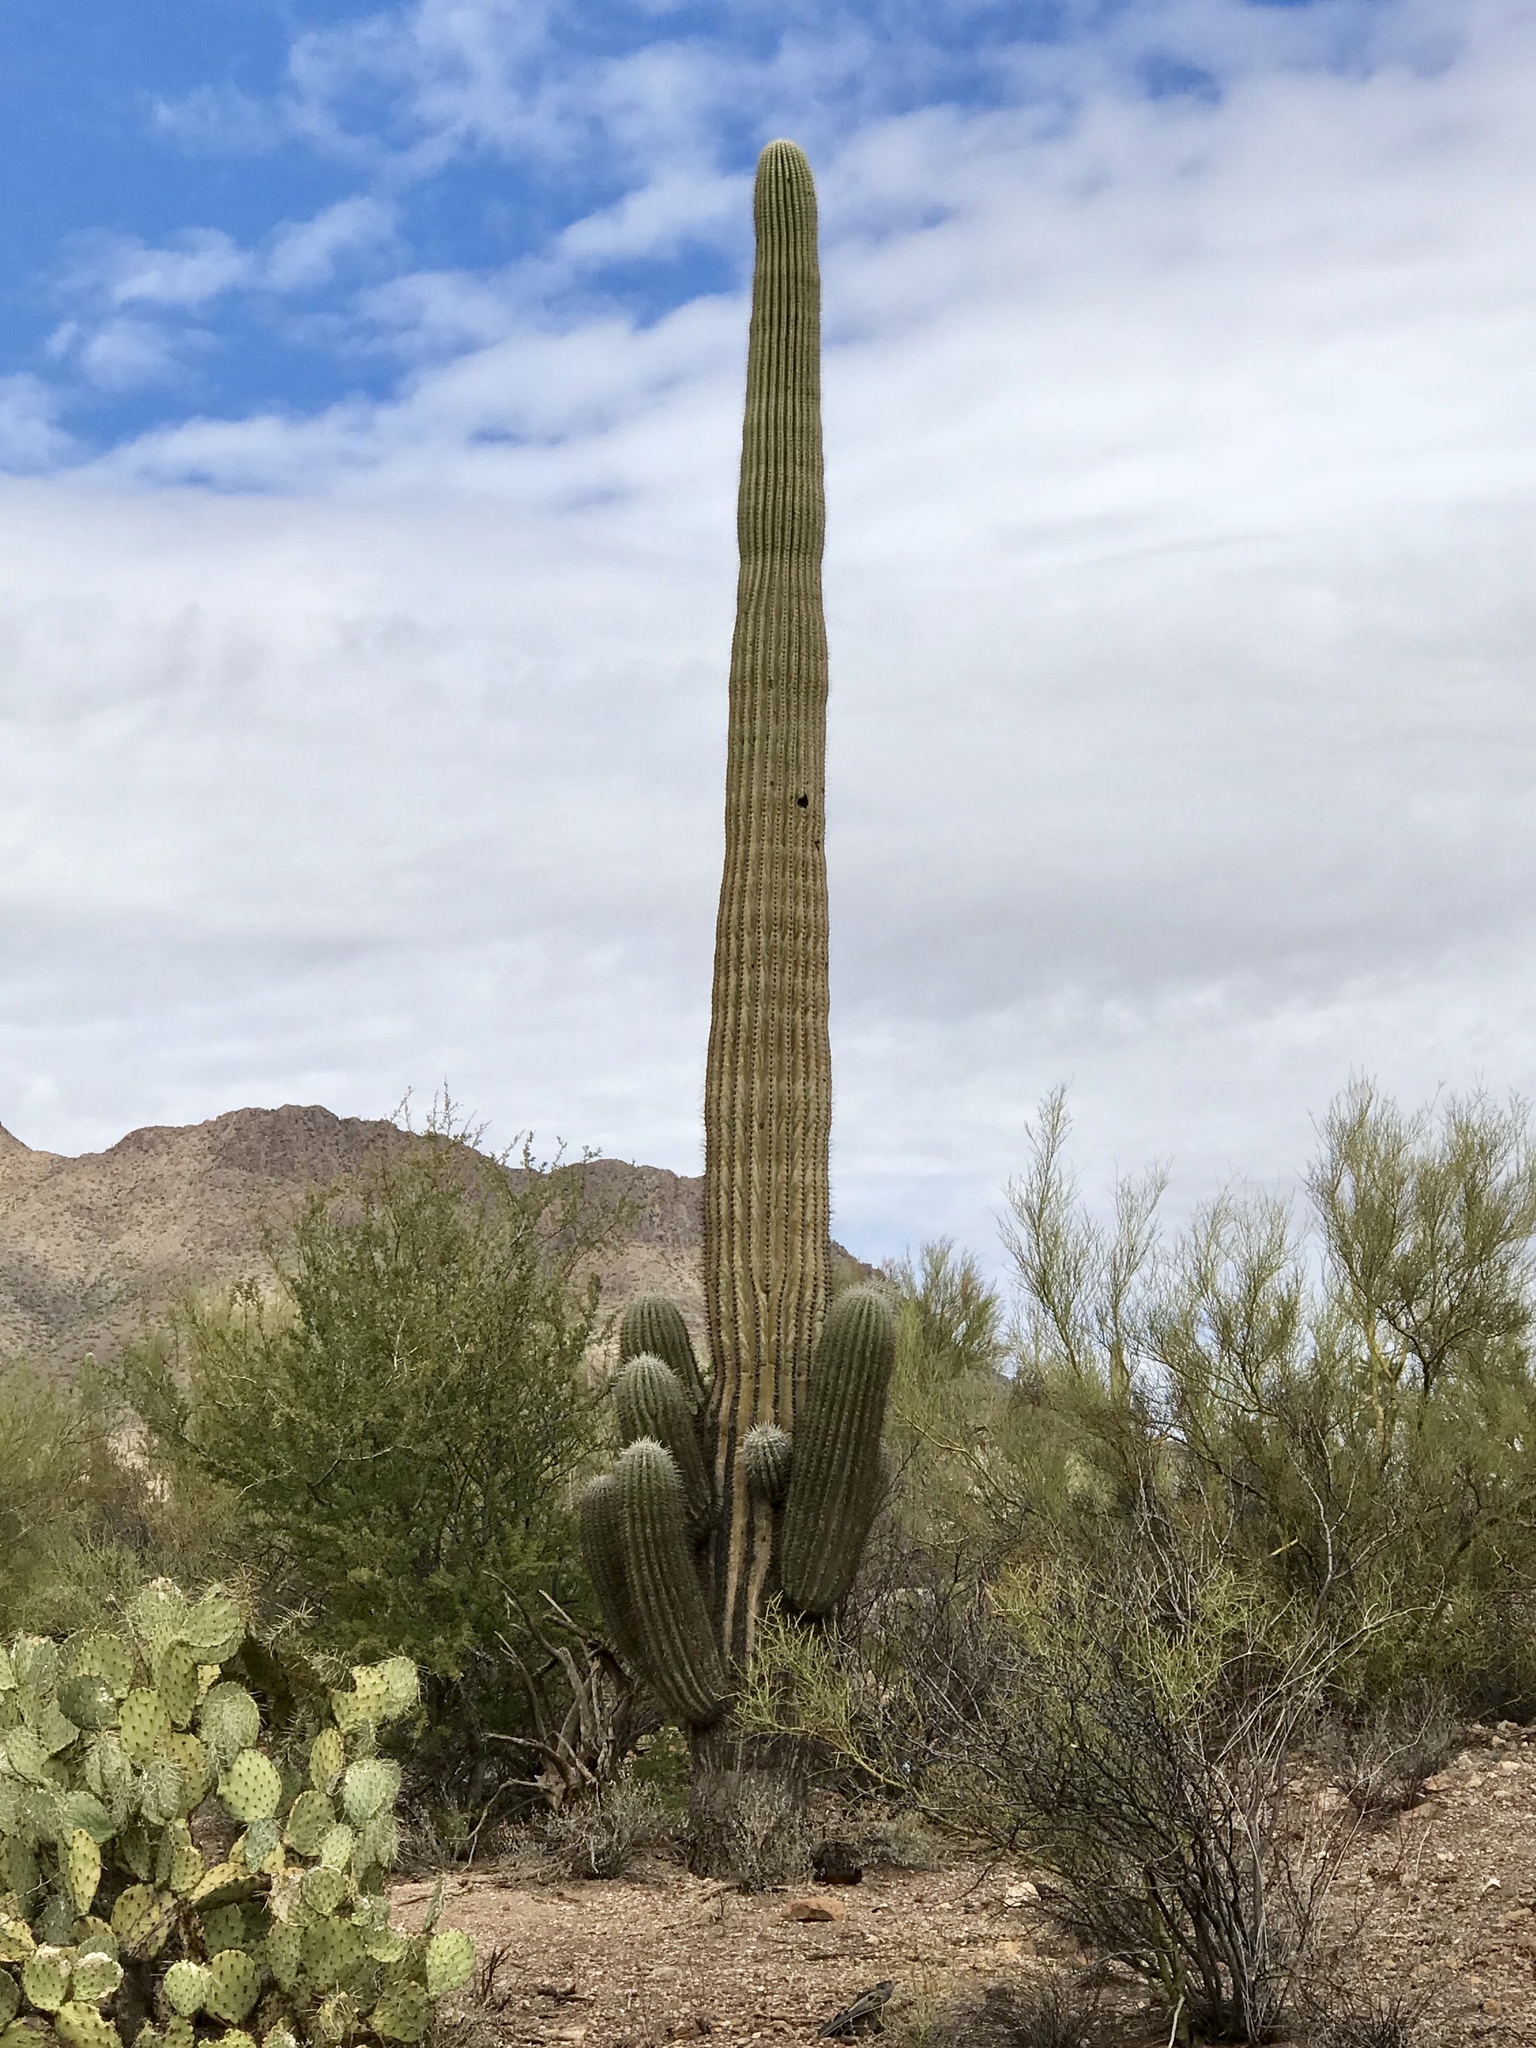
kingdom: Plantae
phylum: Tracheophyta
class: Magnoliopsida
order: Caryophyllales
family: Cactaceae
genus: Carnegiea
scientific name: Carnegiea gigantea
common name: Saguaro
